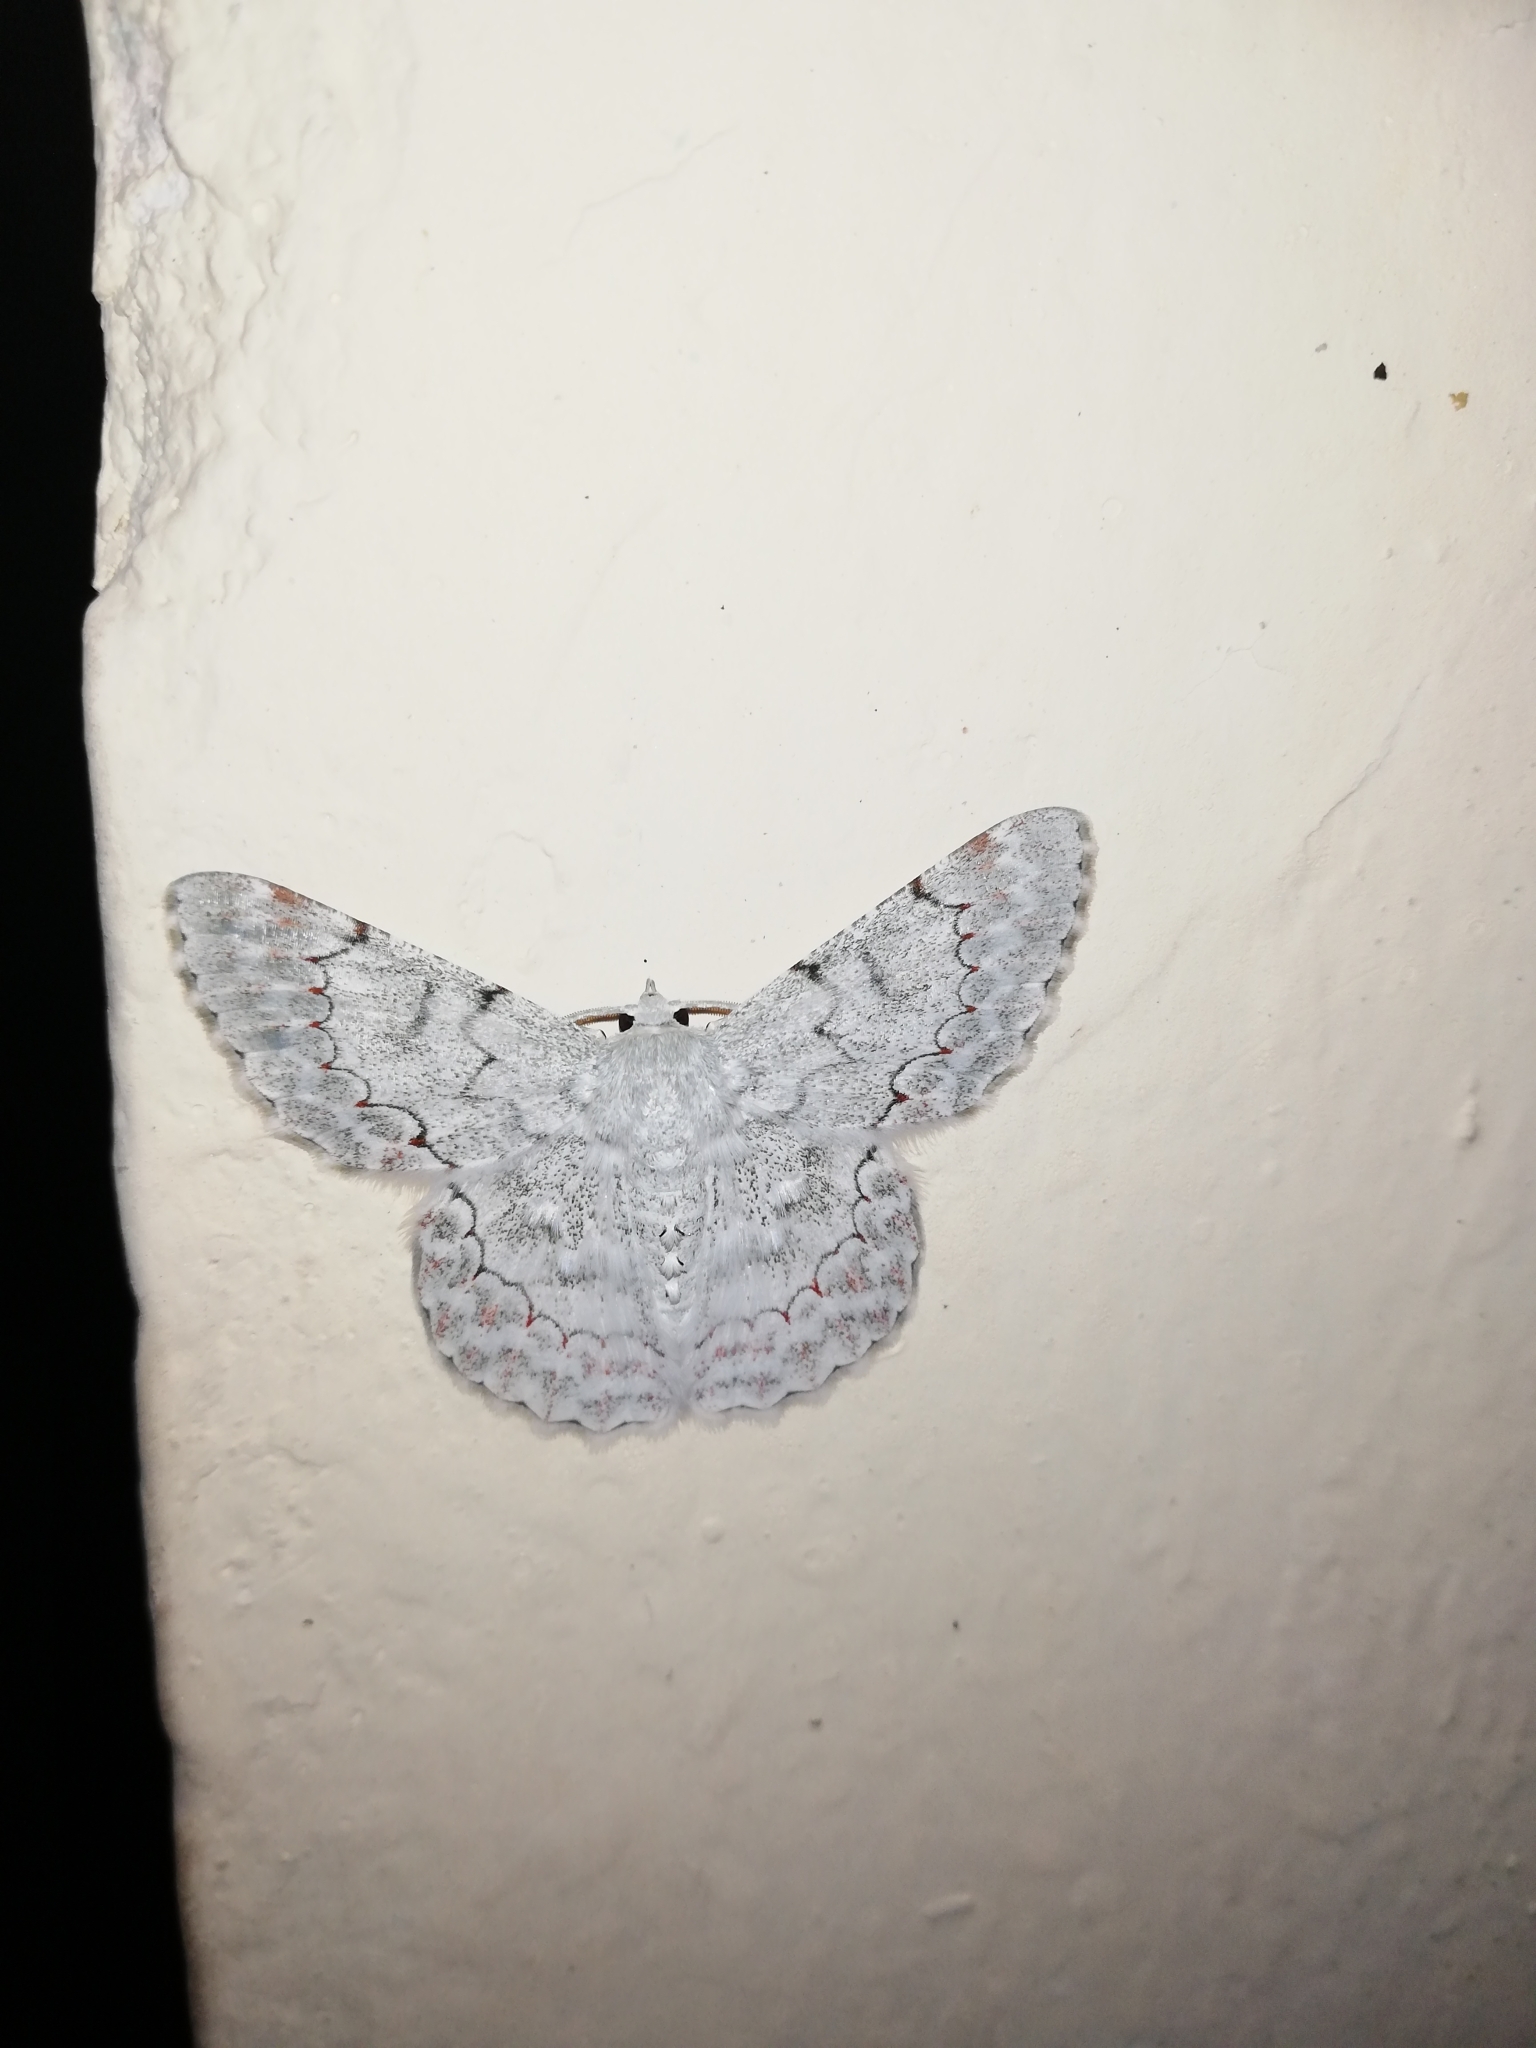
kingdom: Animalia
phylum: Arthropoda
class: Insecta
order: Lepidoptera
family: Geometridae
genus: Pingasa
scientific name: Pingasa chlora
